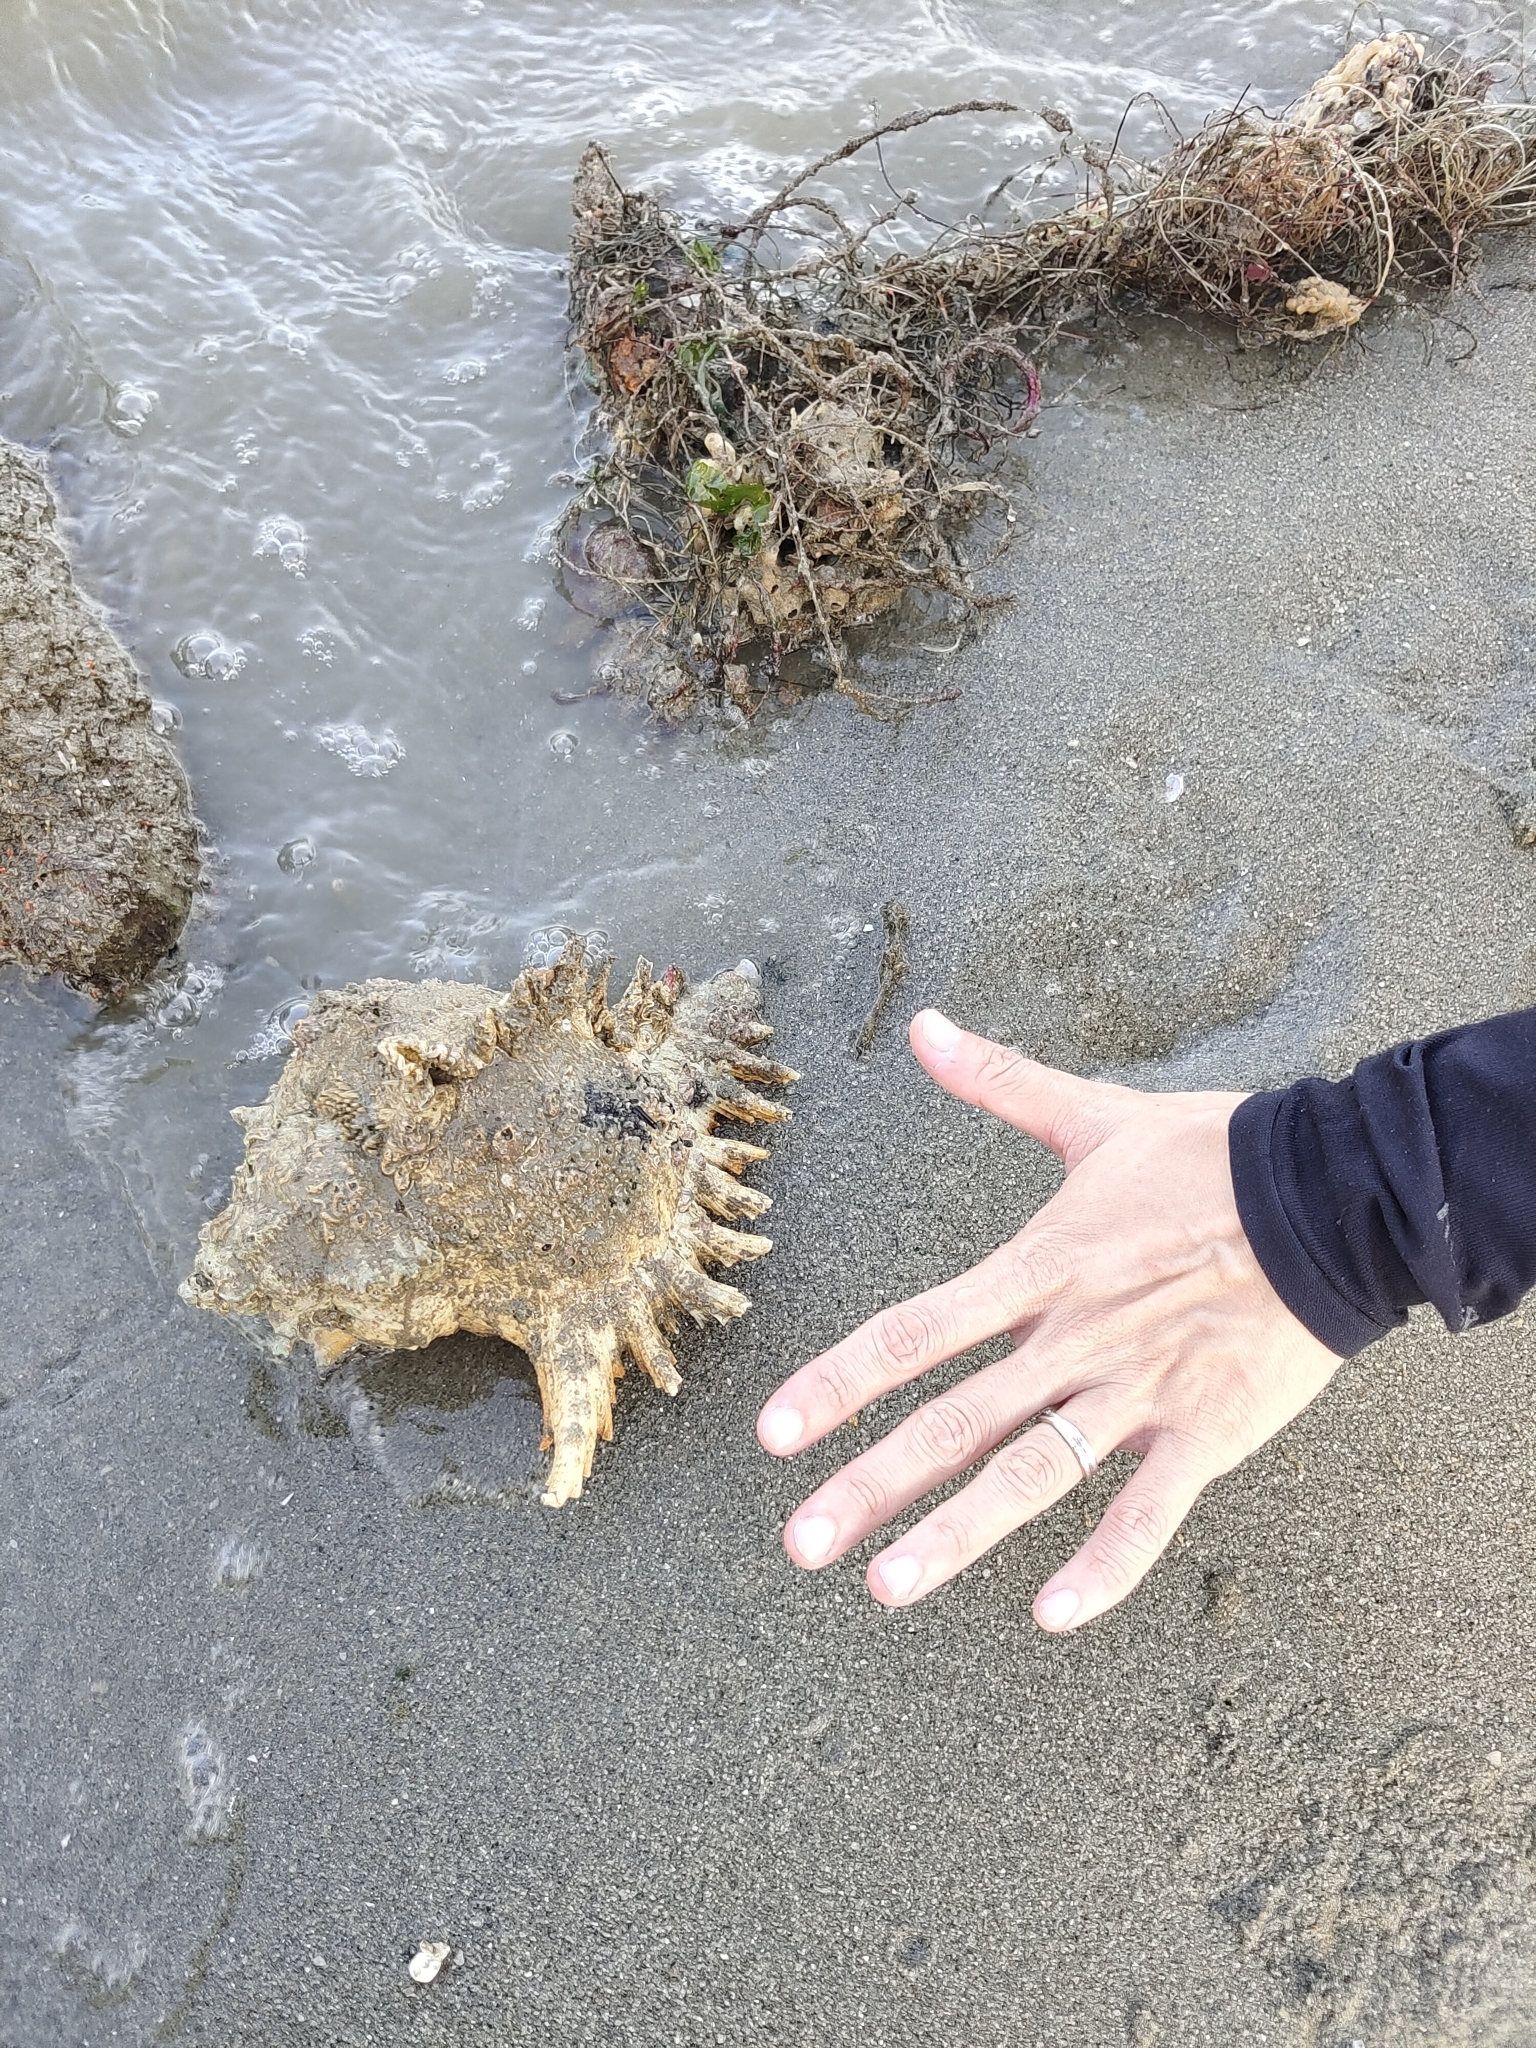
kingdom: Animalia
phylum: Mollusca
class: Gastropoda
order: Neogastropoda
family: Muricidae
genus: Chicoreus
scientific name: Chicoreus ramosus
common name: Branched murex
